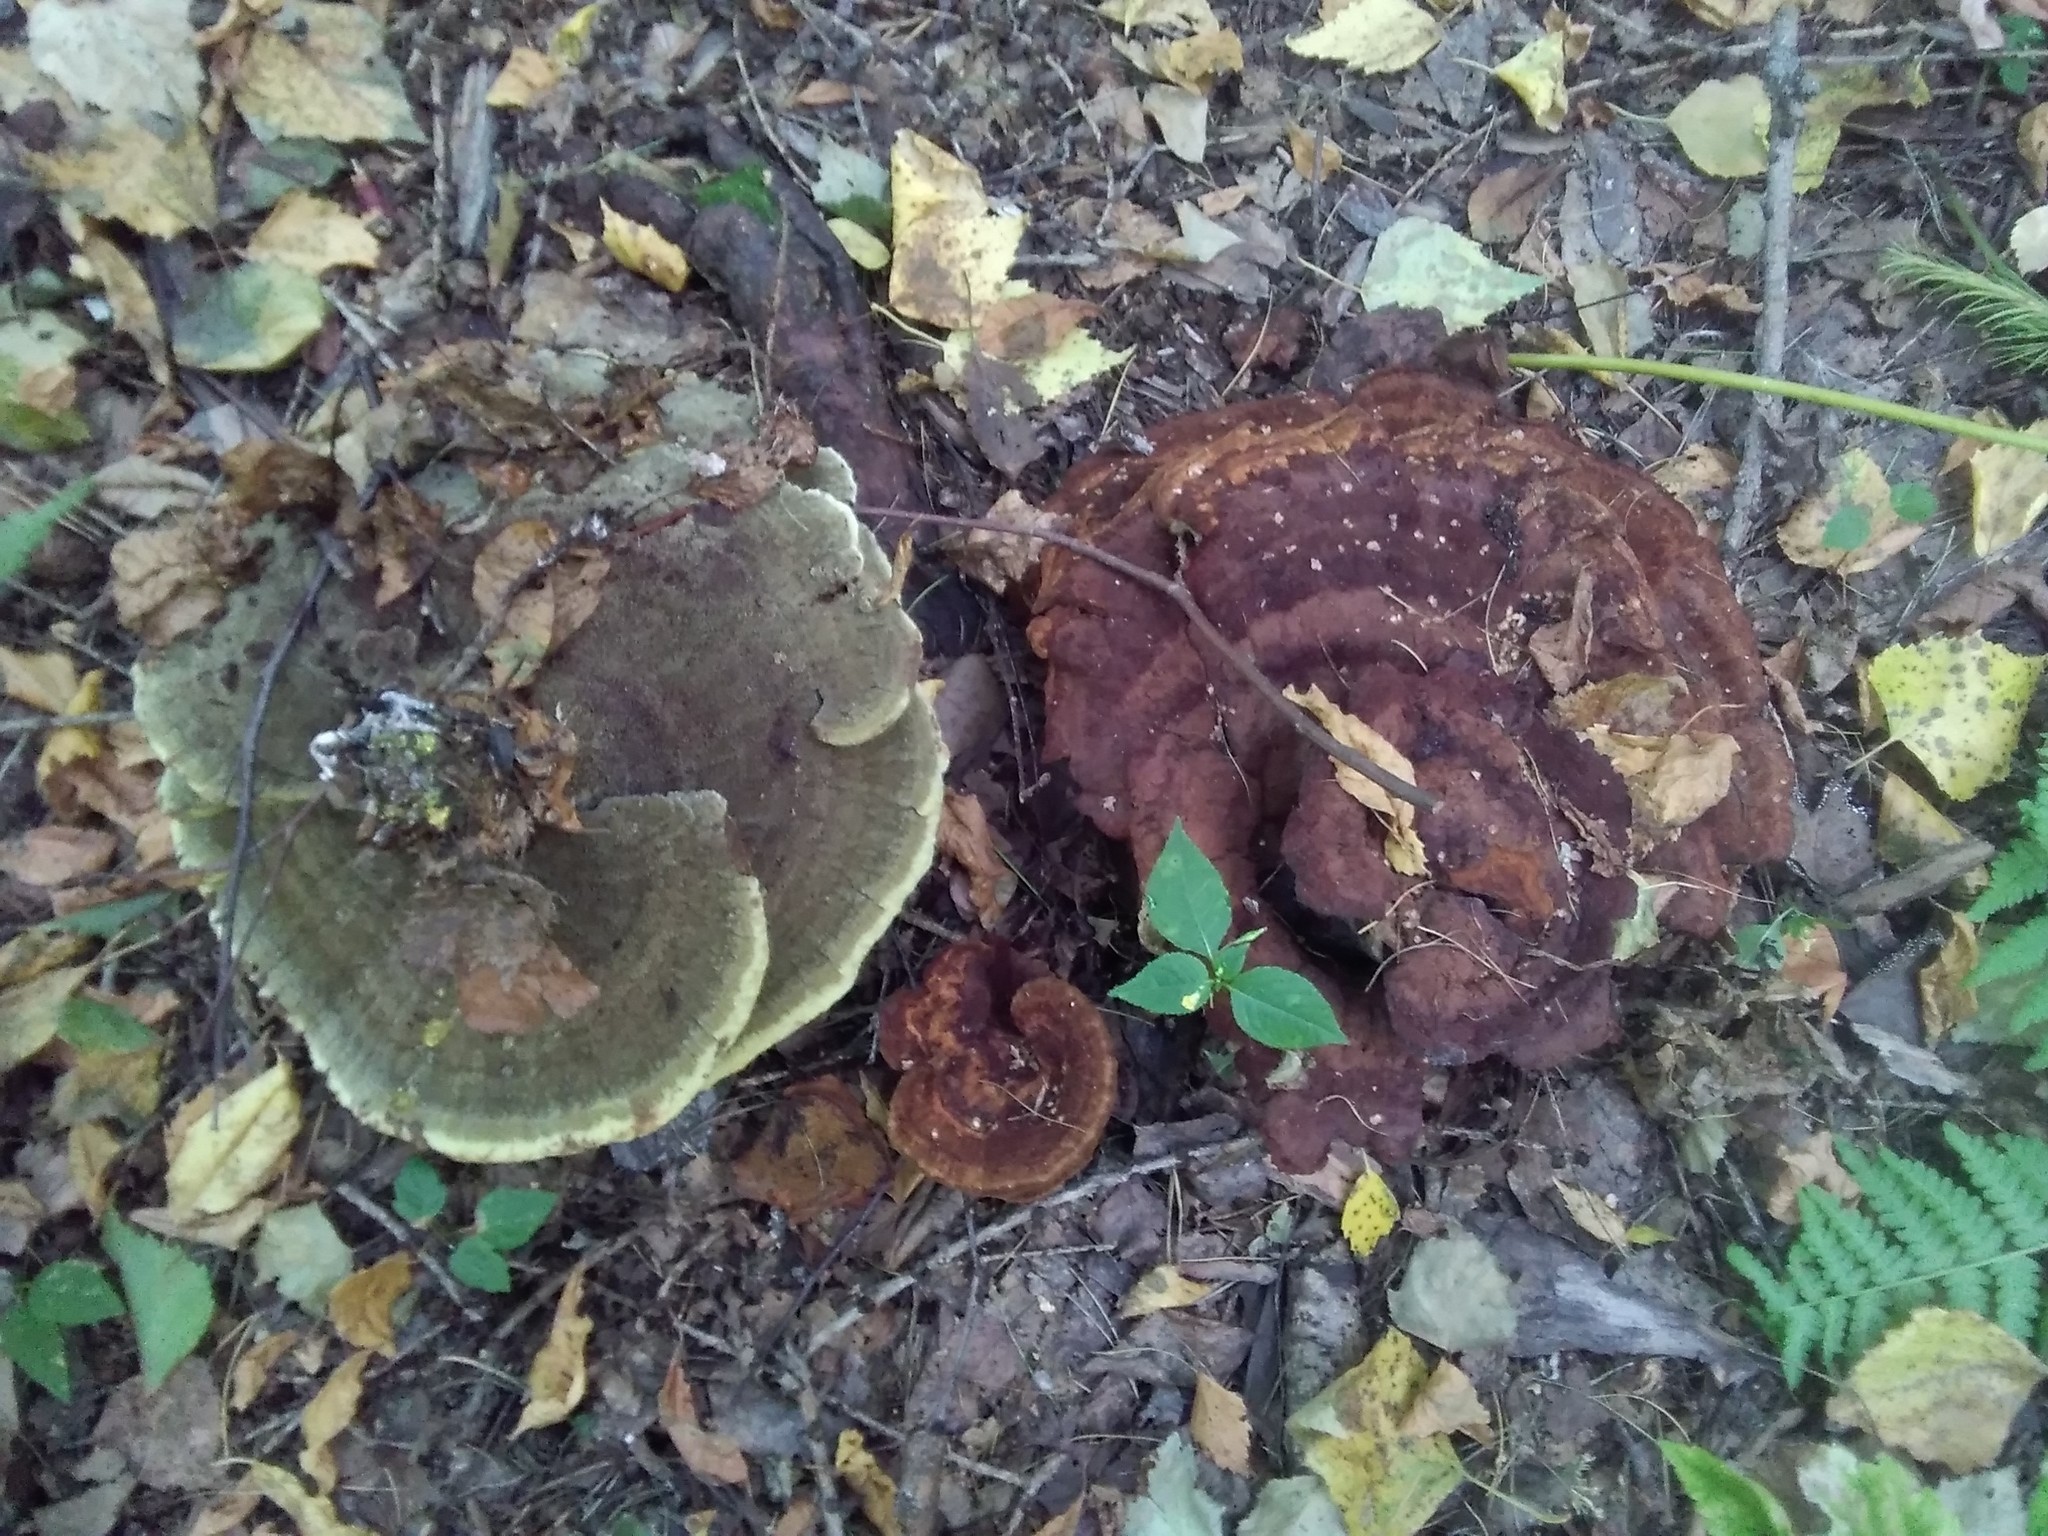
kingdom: Fungi
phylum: Basidiomycota
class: Agaricomycetes
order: Polyporales
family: Laetiporaceae
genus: Phaeolus
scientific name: Phaeolus schweinitzii
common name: Dyer's mazegill
